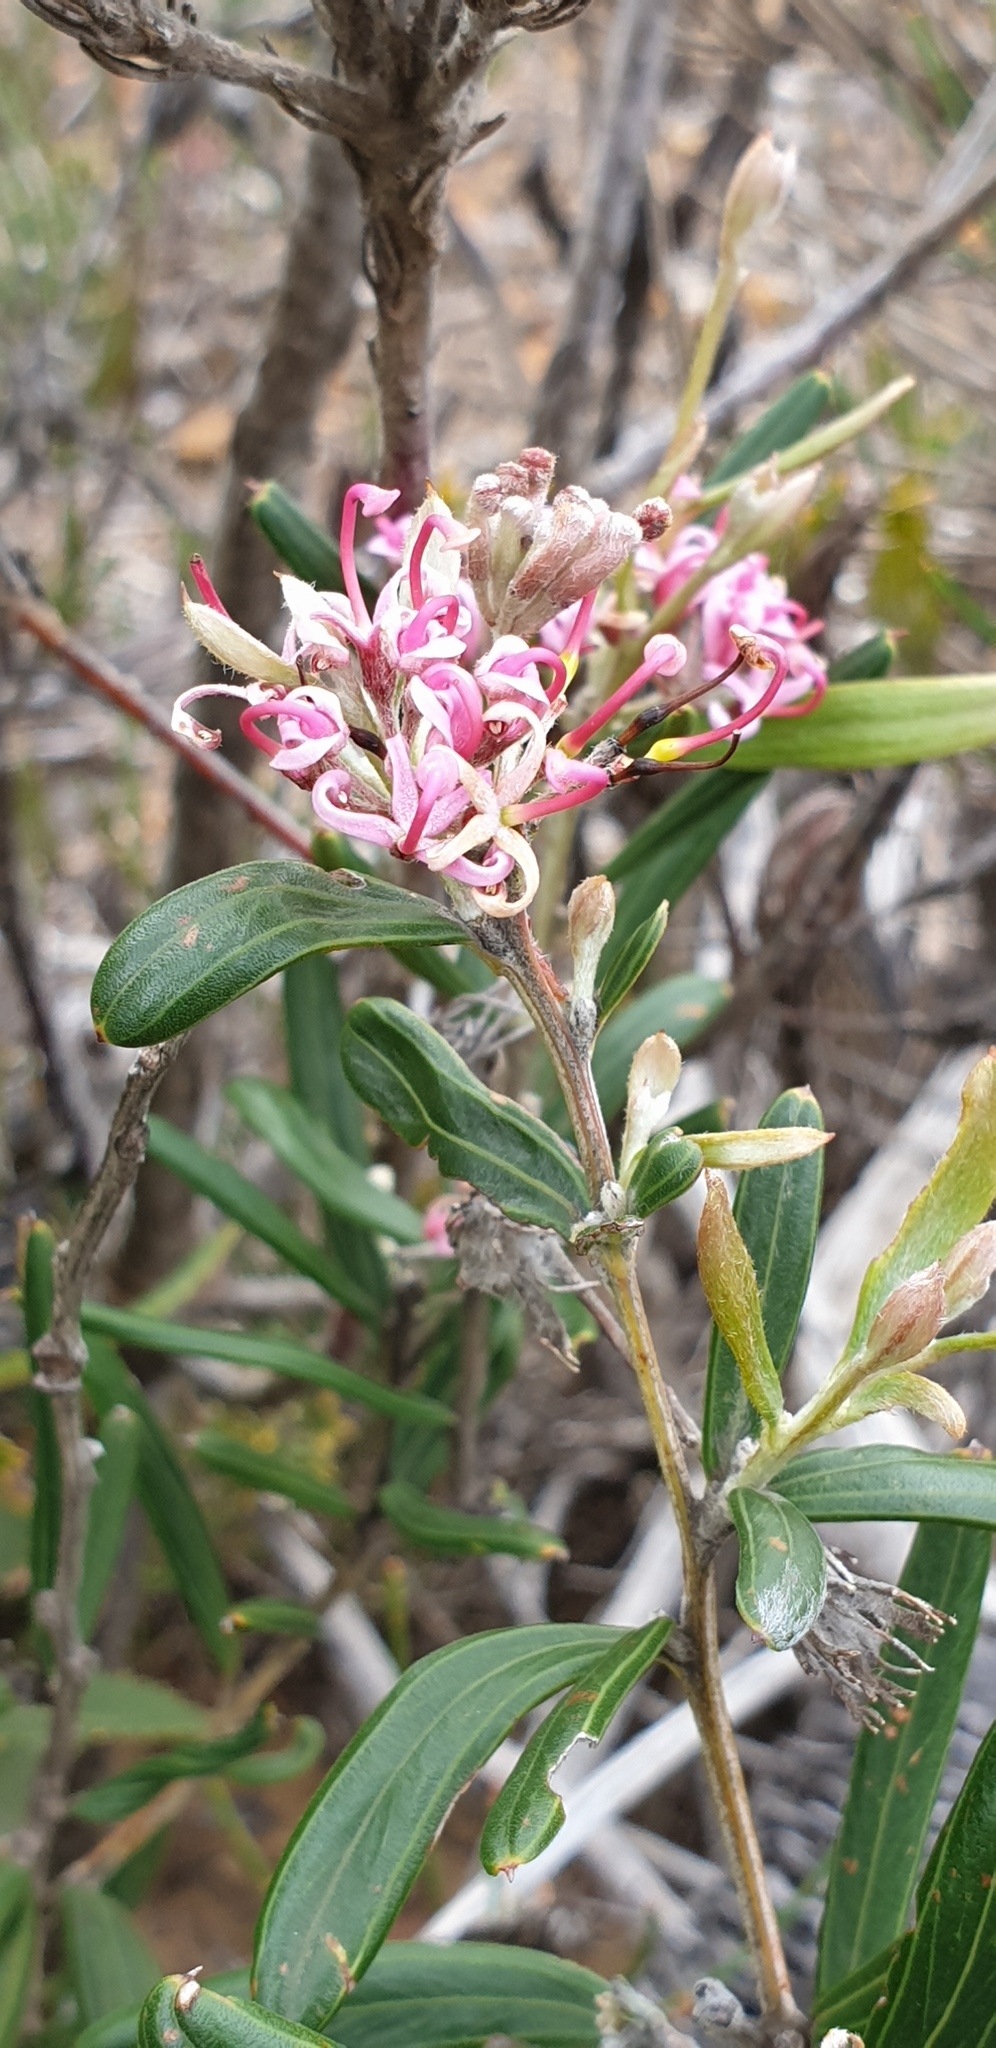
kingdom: Plantae
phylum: Tracheophyta
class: Magnoliopsida
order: Proteales
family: Proteaceae
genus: Grevillea
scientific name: Grevillea quinquenervis
